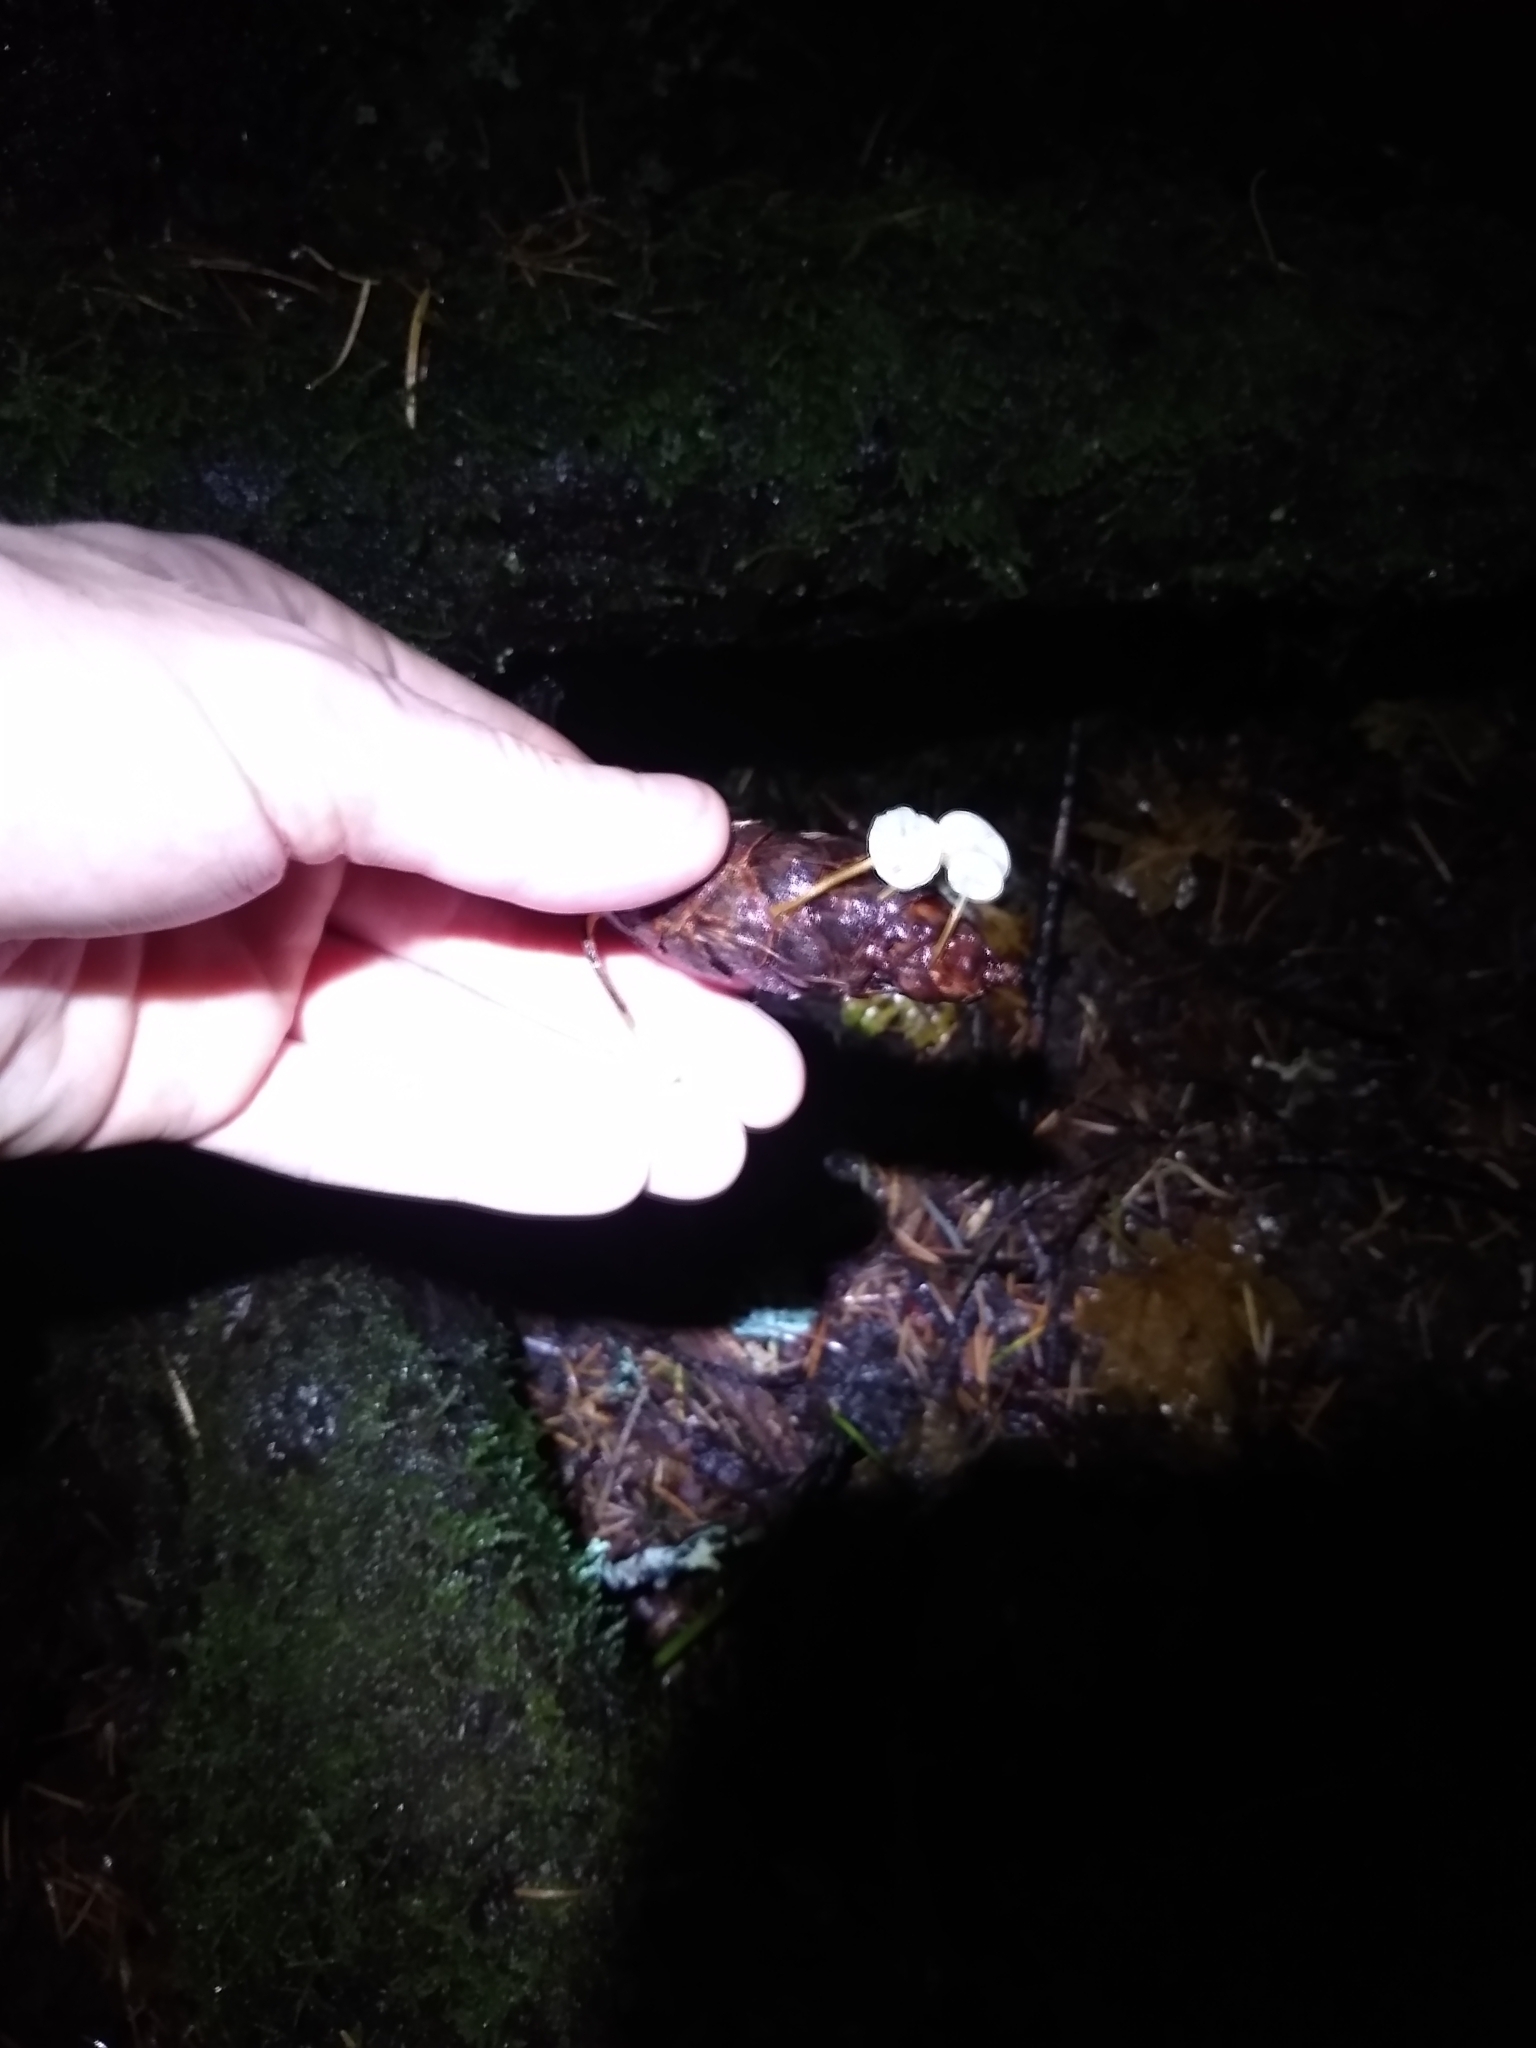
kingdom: Fungi
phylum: Basidiomycota
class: Agaricomycetes
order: Agaricales
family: Physalacriaceae
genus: Strobilurus
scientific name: Strobilurus trullisatus
